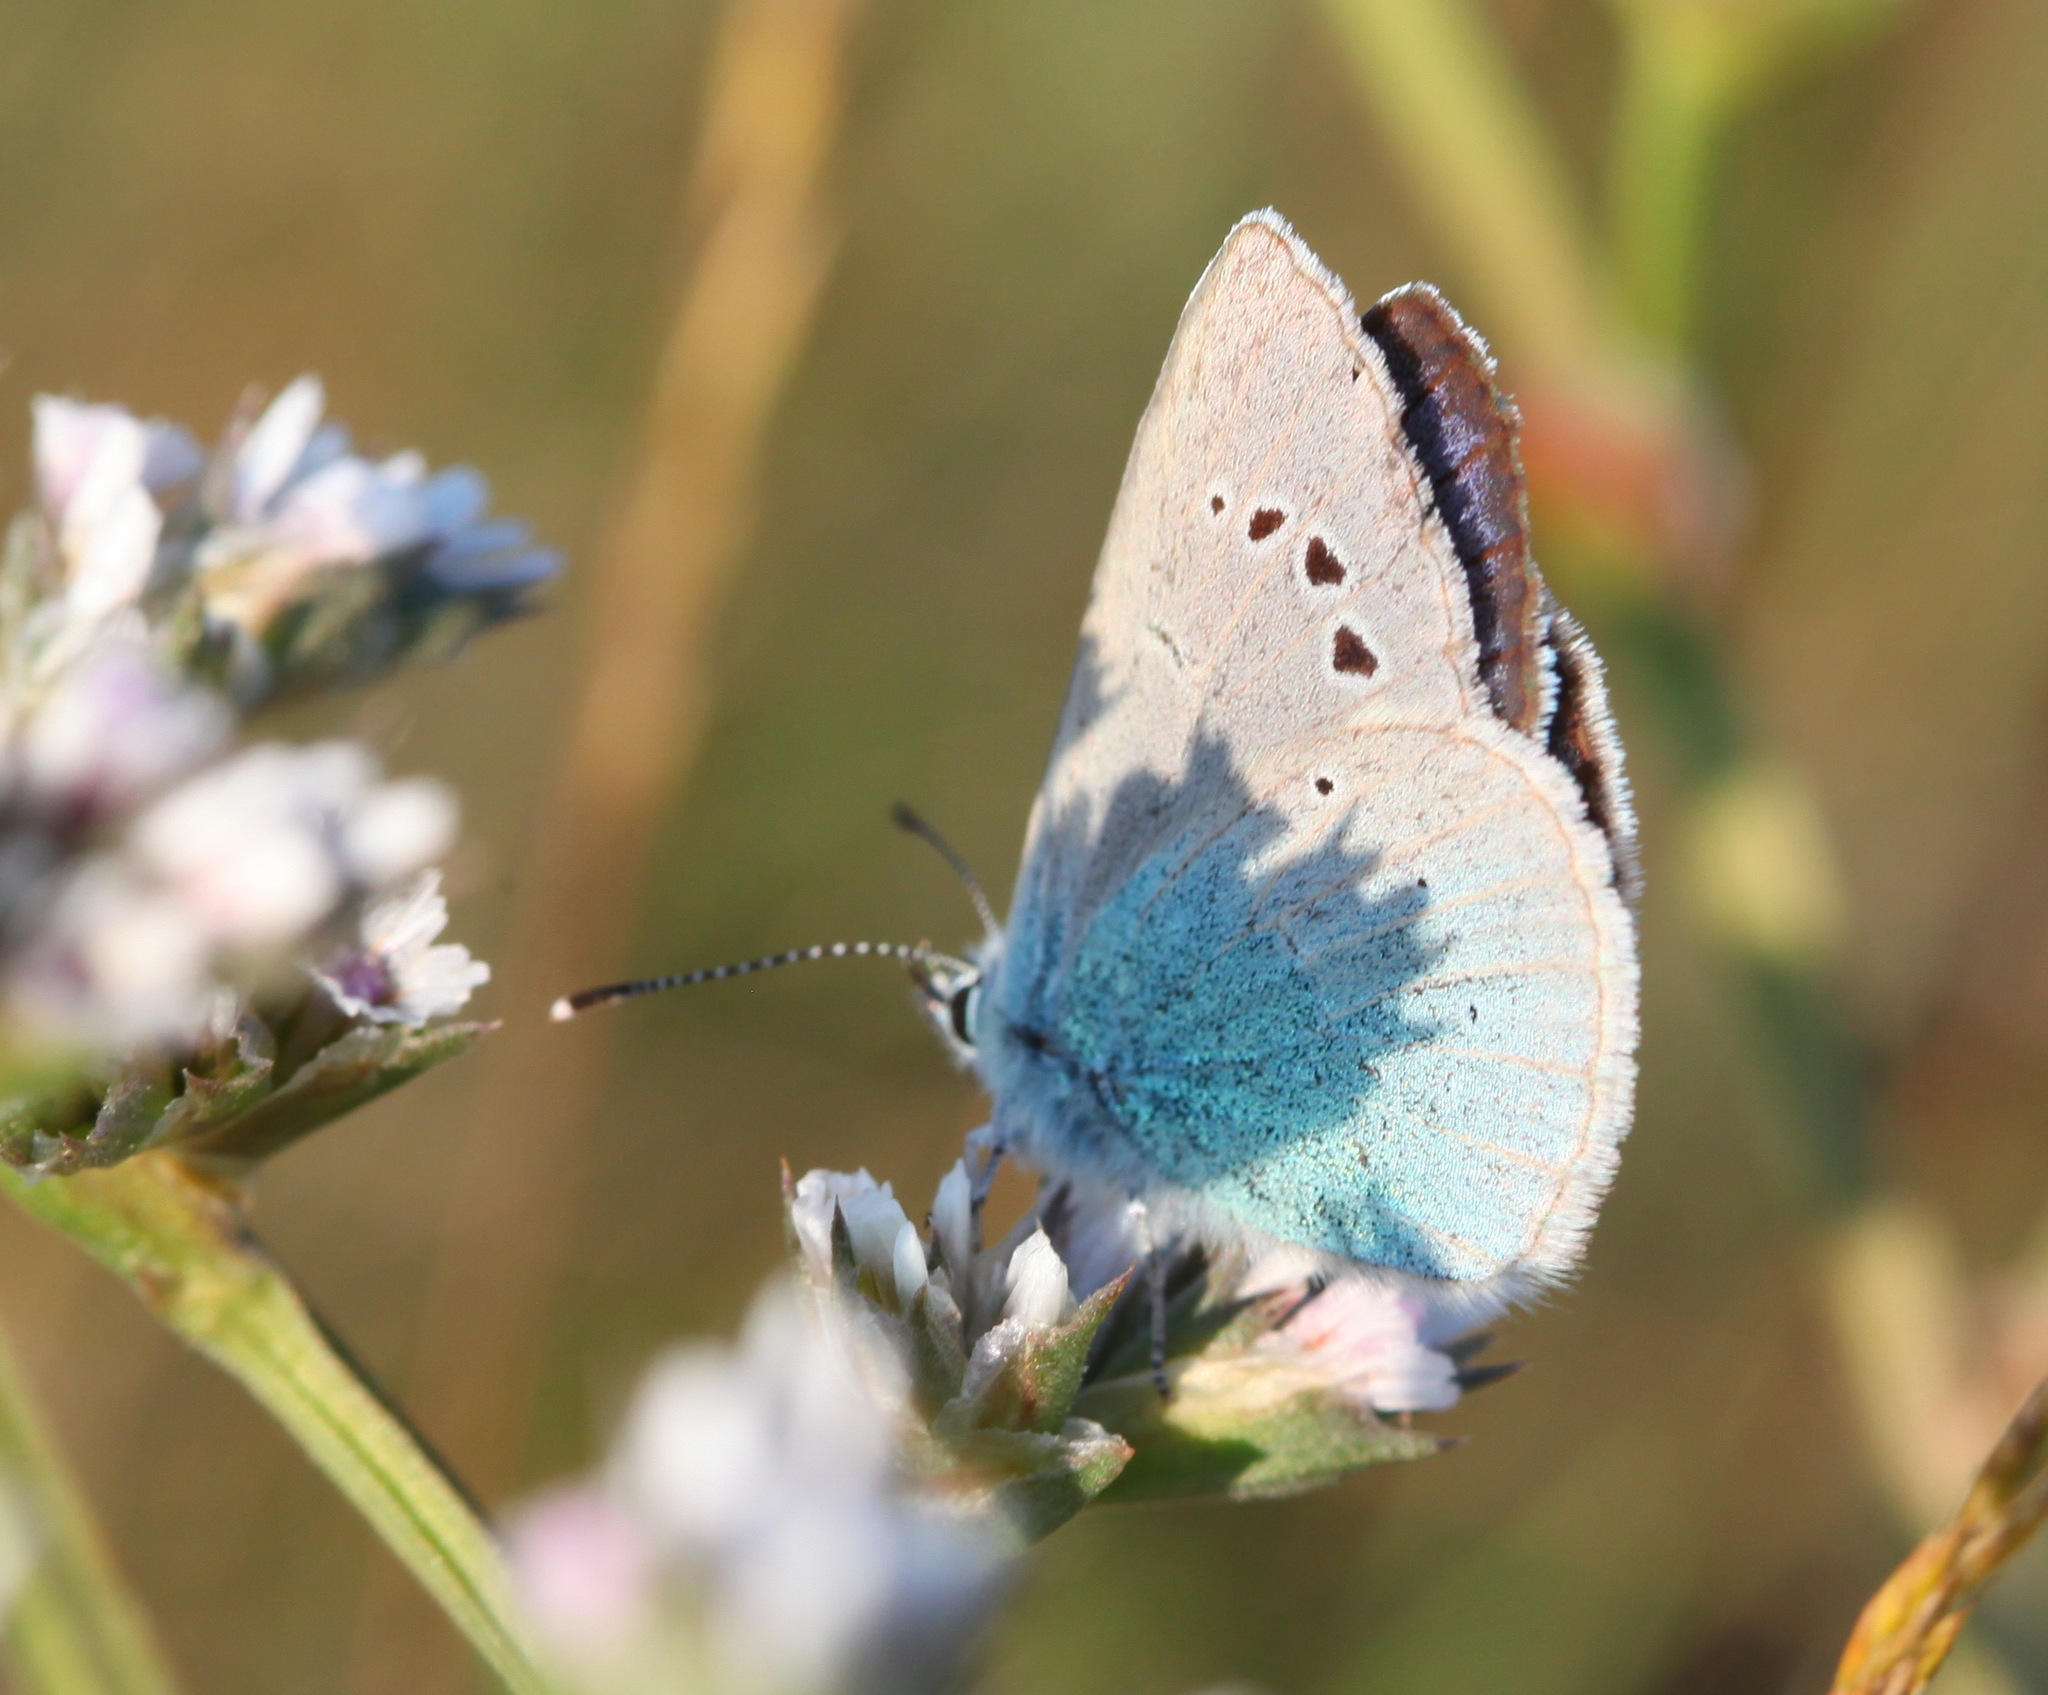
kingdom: Animalia
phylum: Arthropoda
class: Insecta
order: Lepidoptera
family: Lycaenidae
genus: Glaucopsyche
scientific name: Glaucopsyche alexis
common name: Green-underside blue
